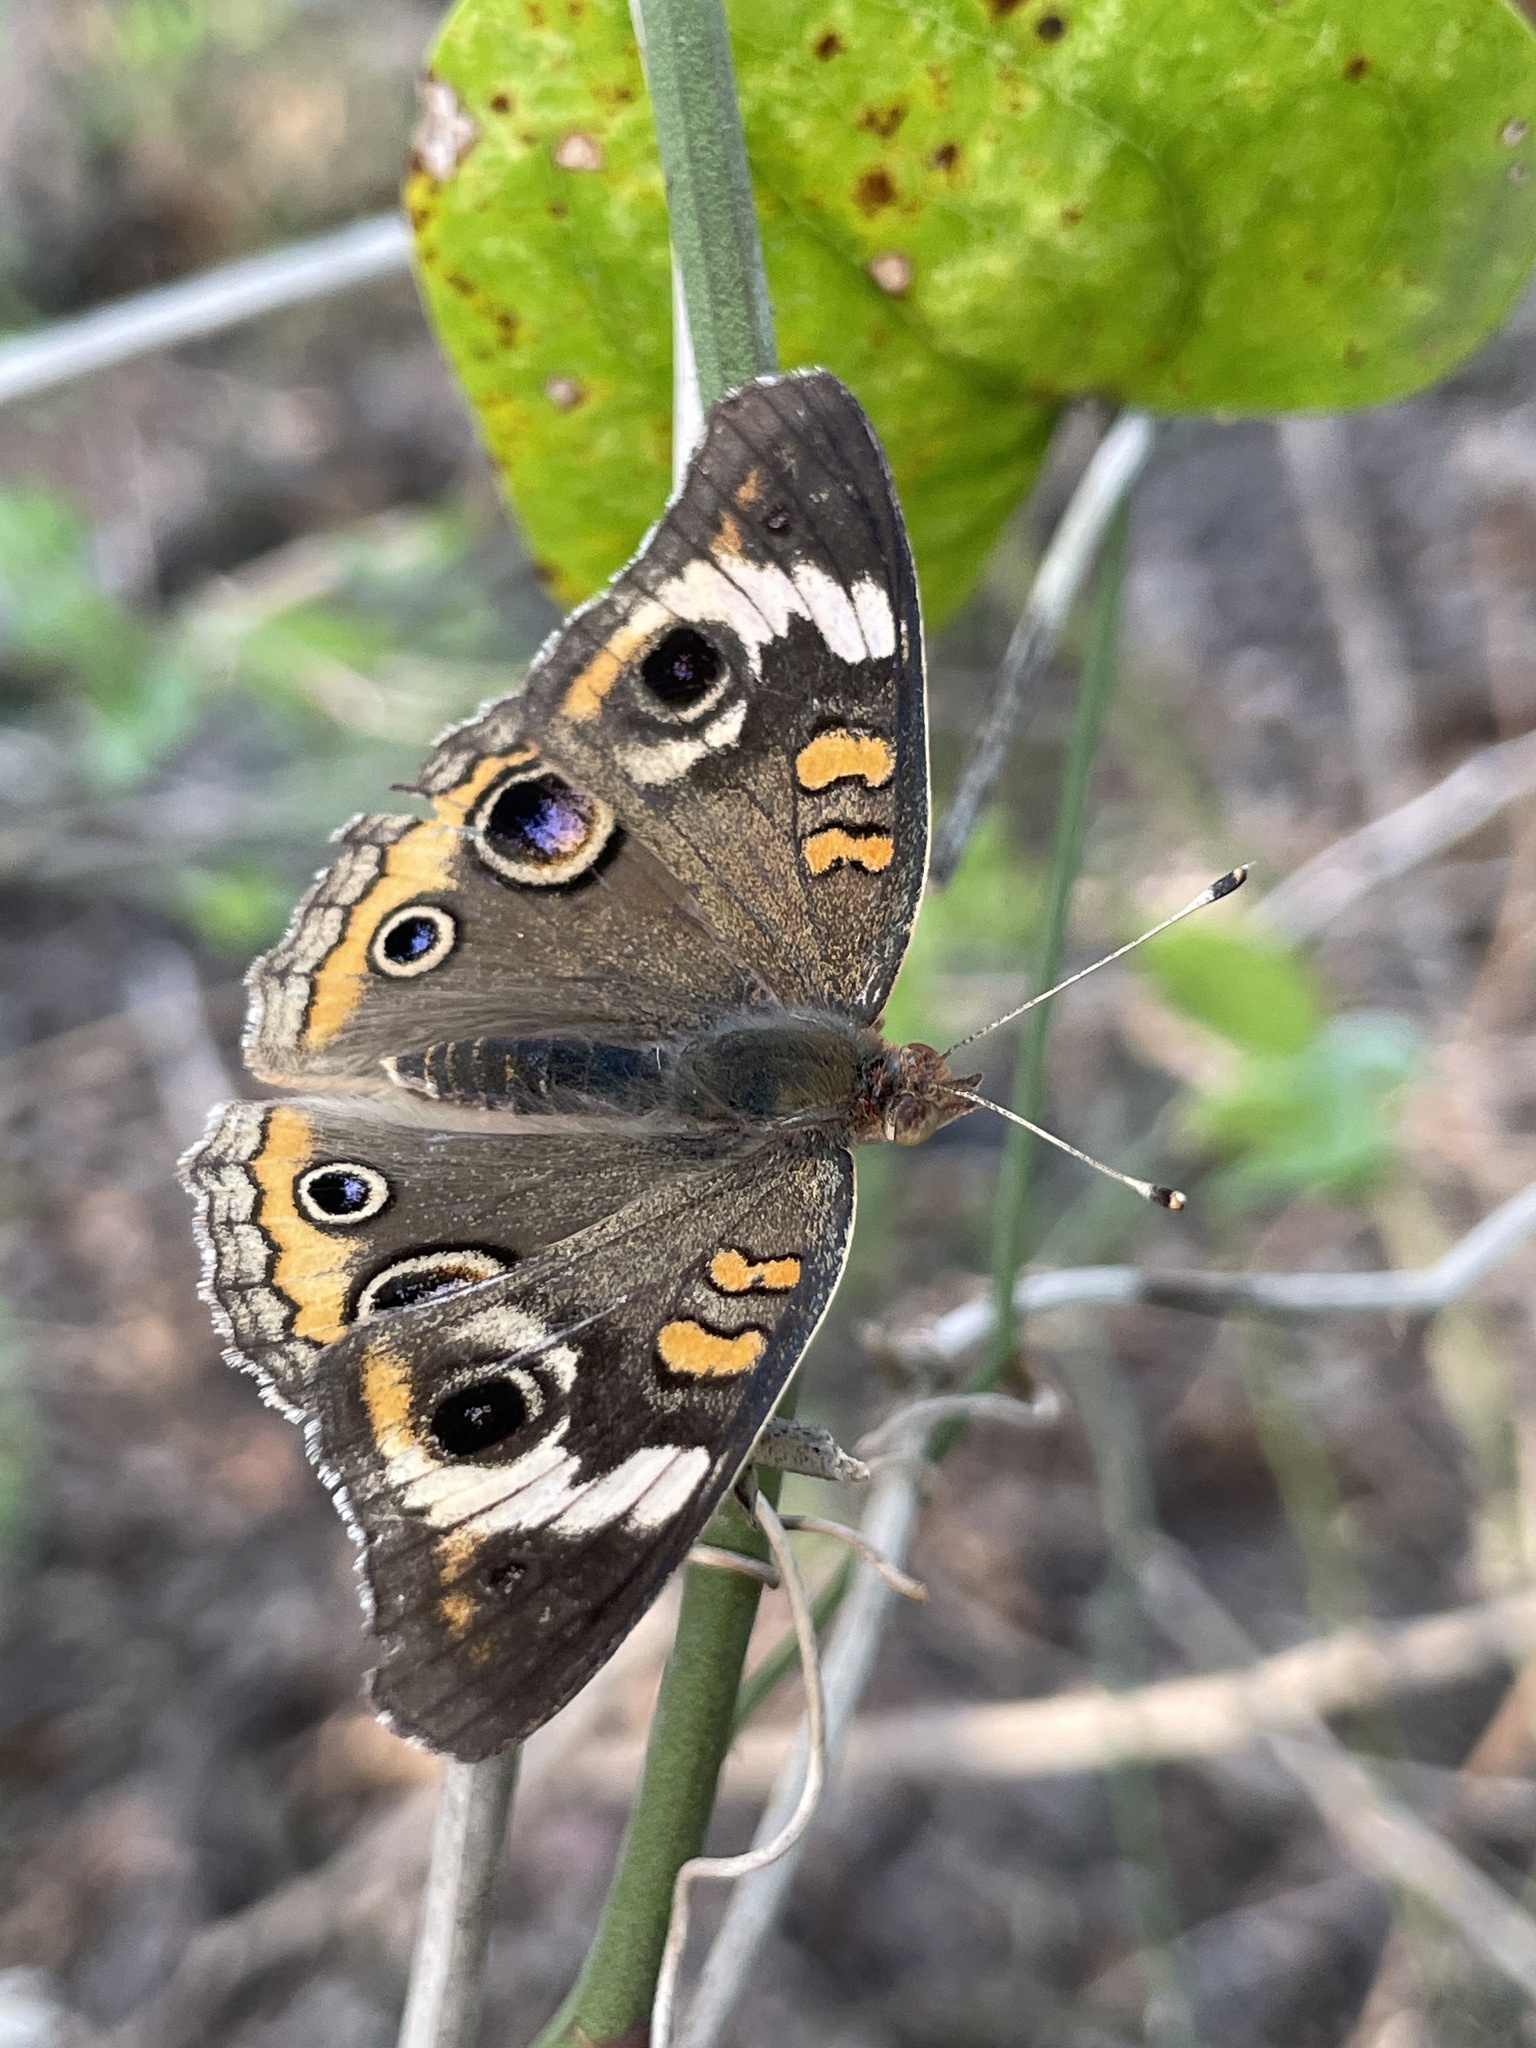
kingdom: Animalia
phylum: Arthropoda
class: Insecta
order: Lepidoptera
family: Nymphalidae
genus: Junonia
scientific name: Junonia coenia
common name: Common buckeye
